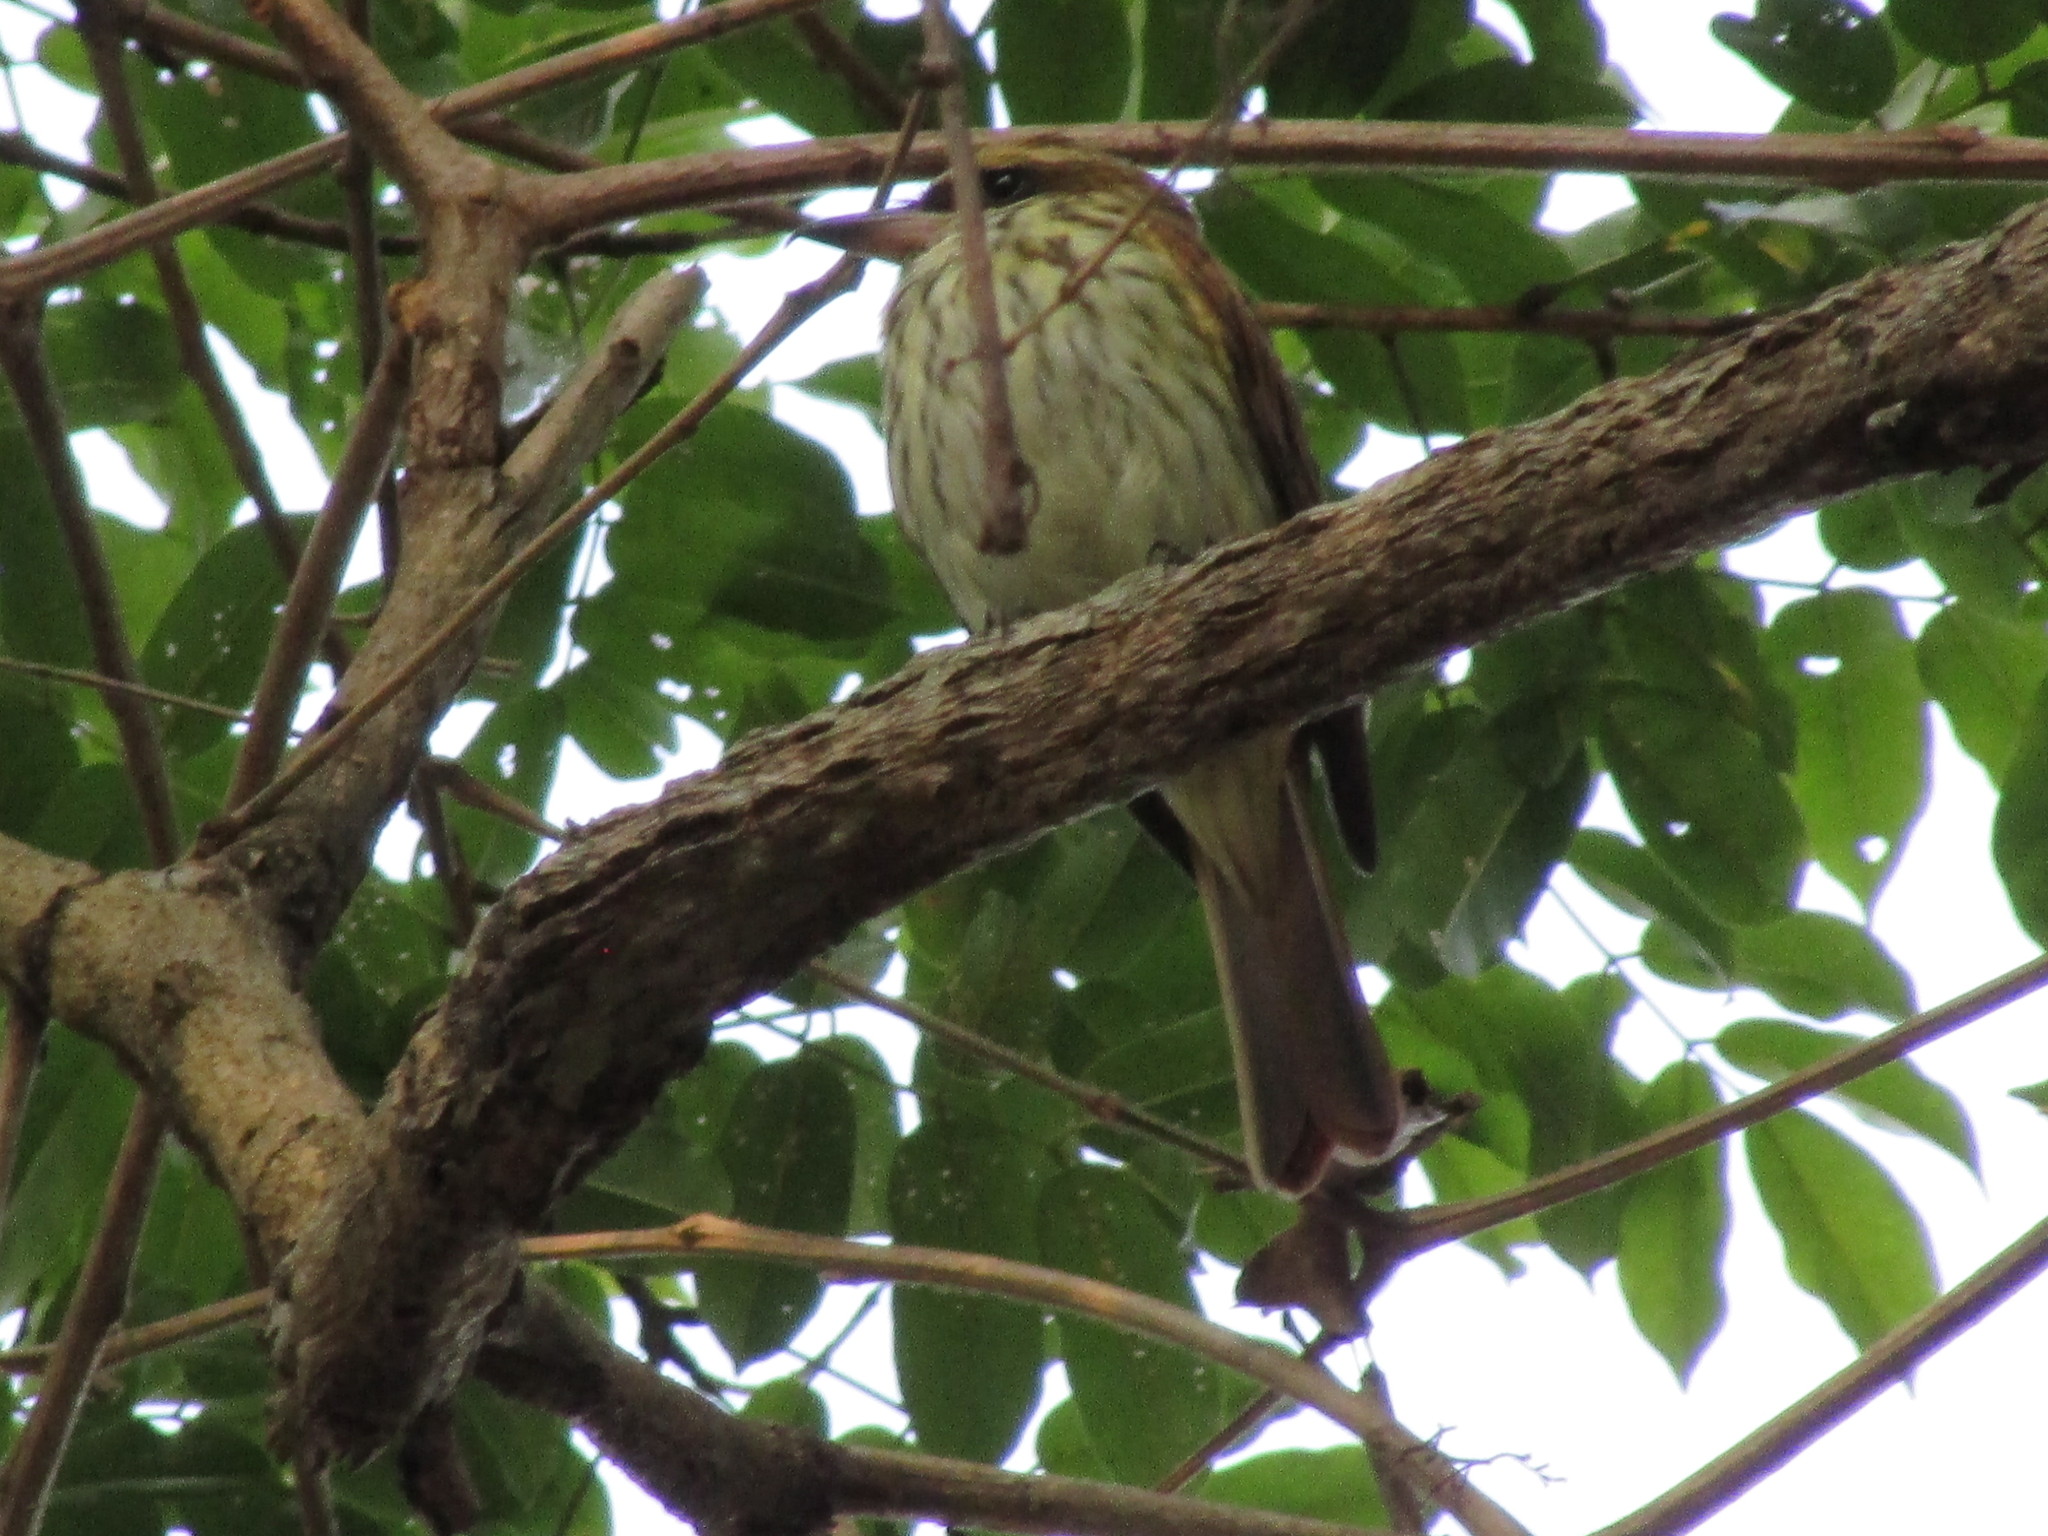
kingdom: Animalia
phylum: Chordata
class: Aves
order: Passeriformes
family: Tyrannidae
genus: Myiodynastes
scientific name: Myiodynastes maculatus
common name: Streaked flycatcher
